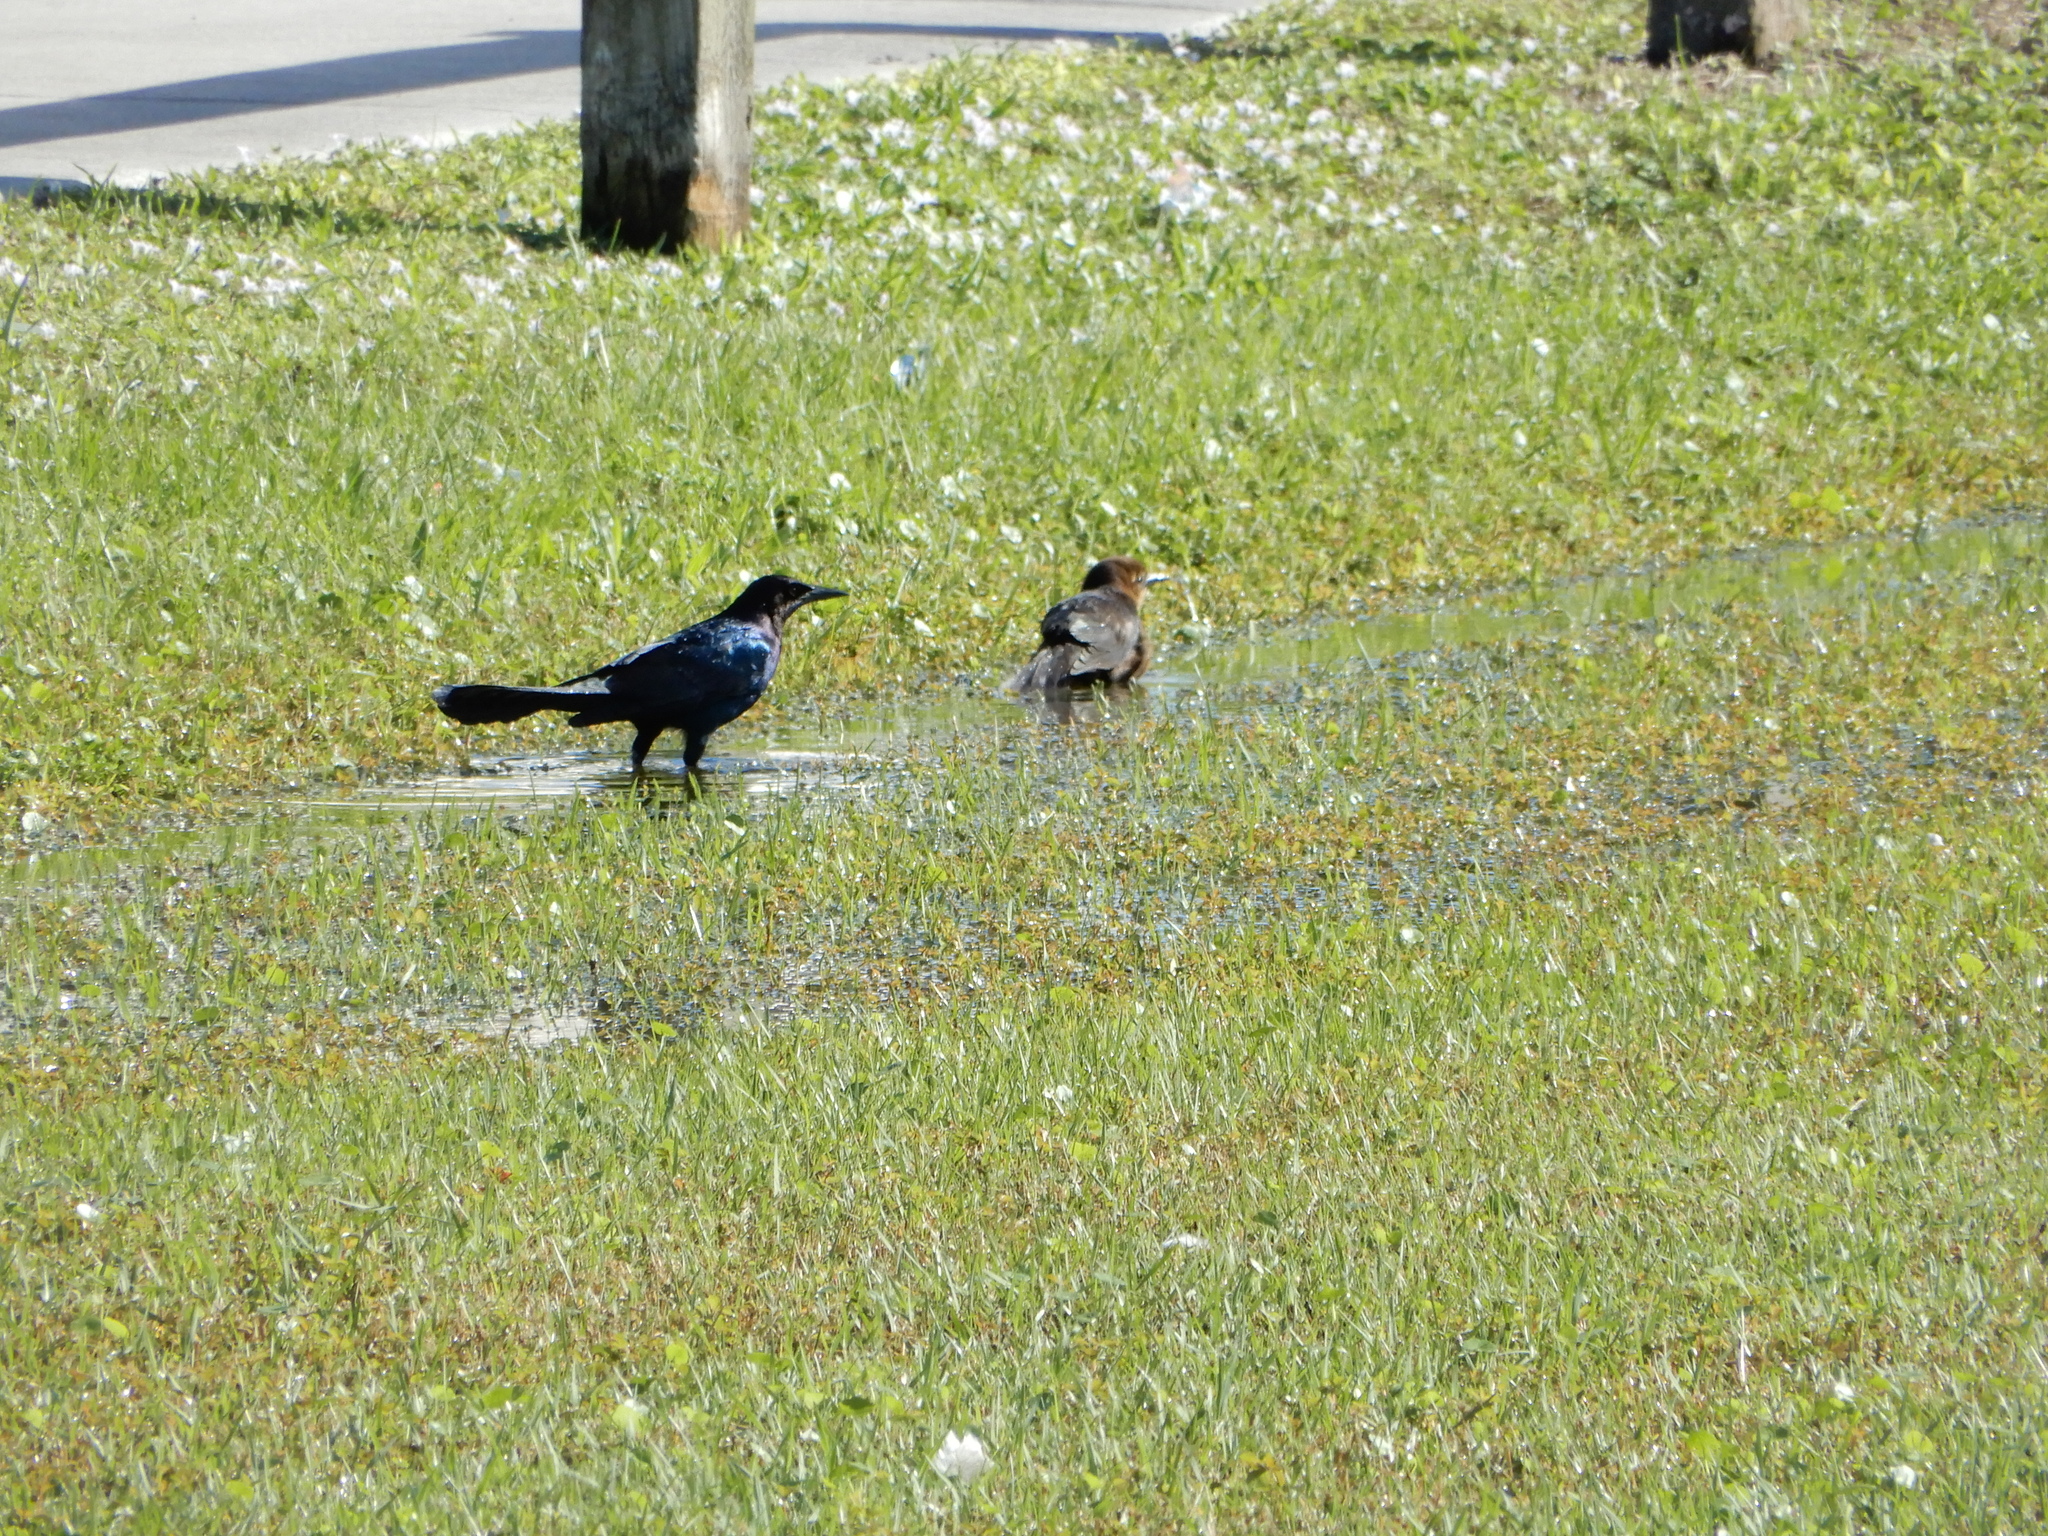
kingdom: Animalia
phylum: Chordata
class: Aves
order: Passeriformes
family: Icteridae
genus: Quiscalus
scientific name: Quiscalus major
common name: Boat-tailed grackle
